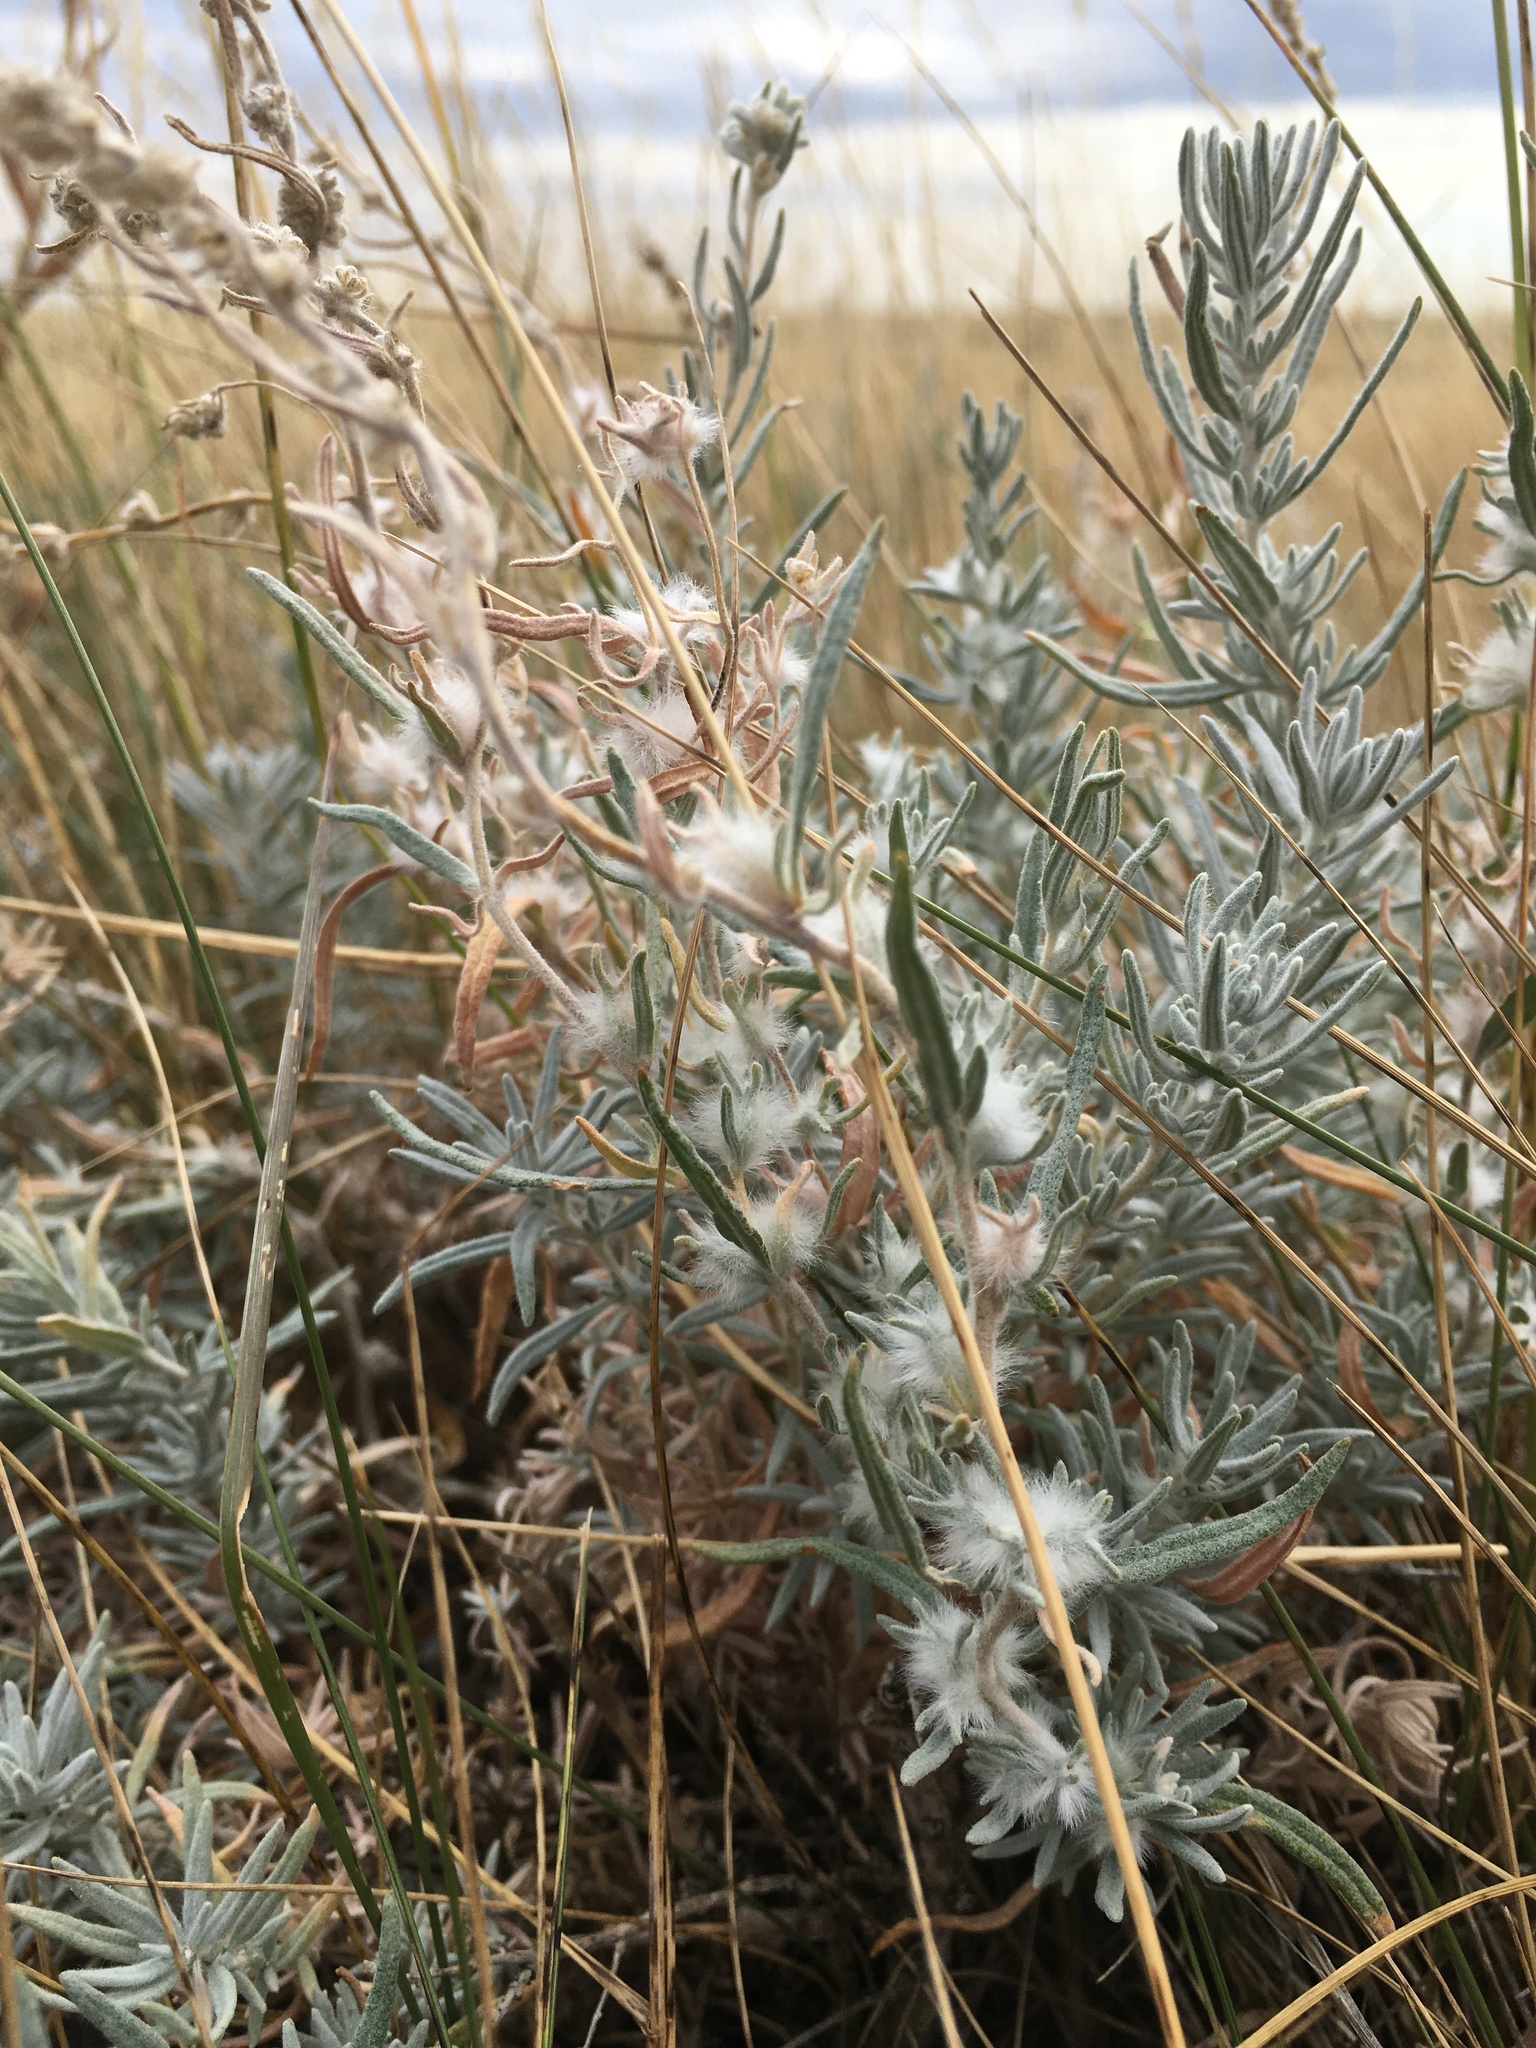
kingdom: Plantae
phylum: Tracheophyta
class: Magnoliopsida
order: Caryophyllales
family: Amaranthaceae
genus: Krascheninnikovia
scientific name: Krascheninnikovia lanata
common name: Winterfat
